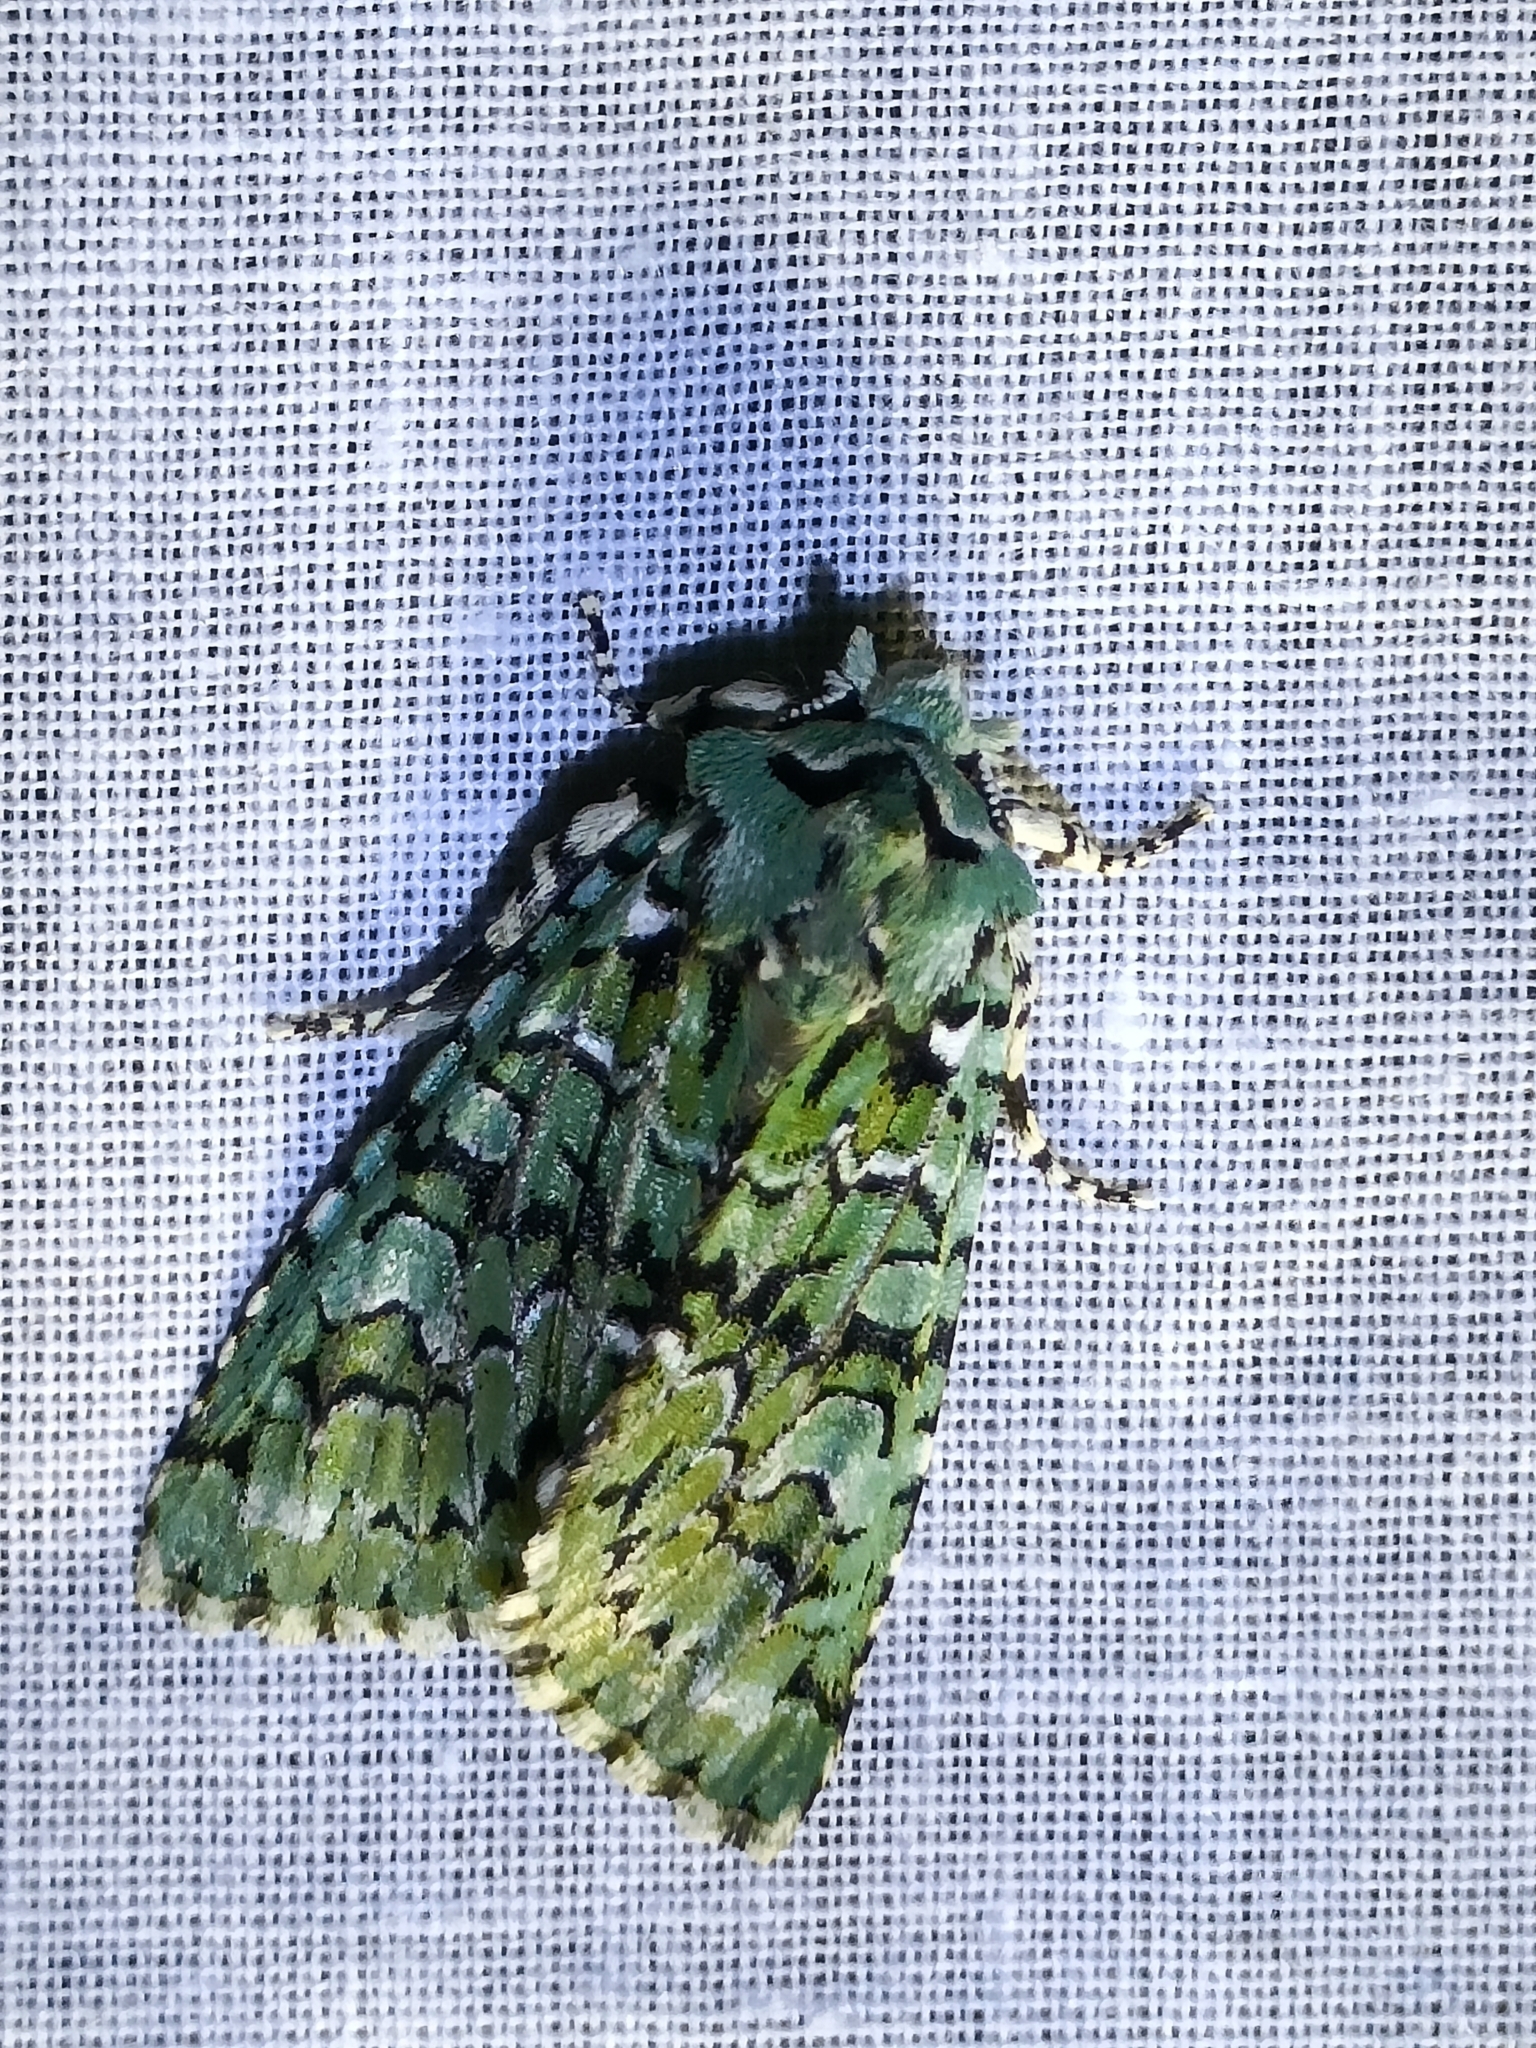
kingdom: Animalia
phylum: Arthropoda
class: Insecta
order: Lepidoptera
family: Noctuidae
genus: Griposia
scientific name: Griposia aprilina
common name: Merveille du jour
